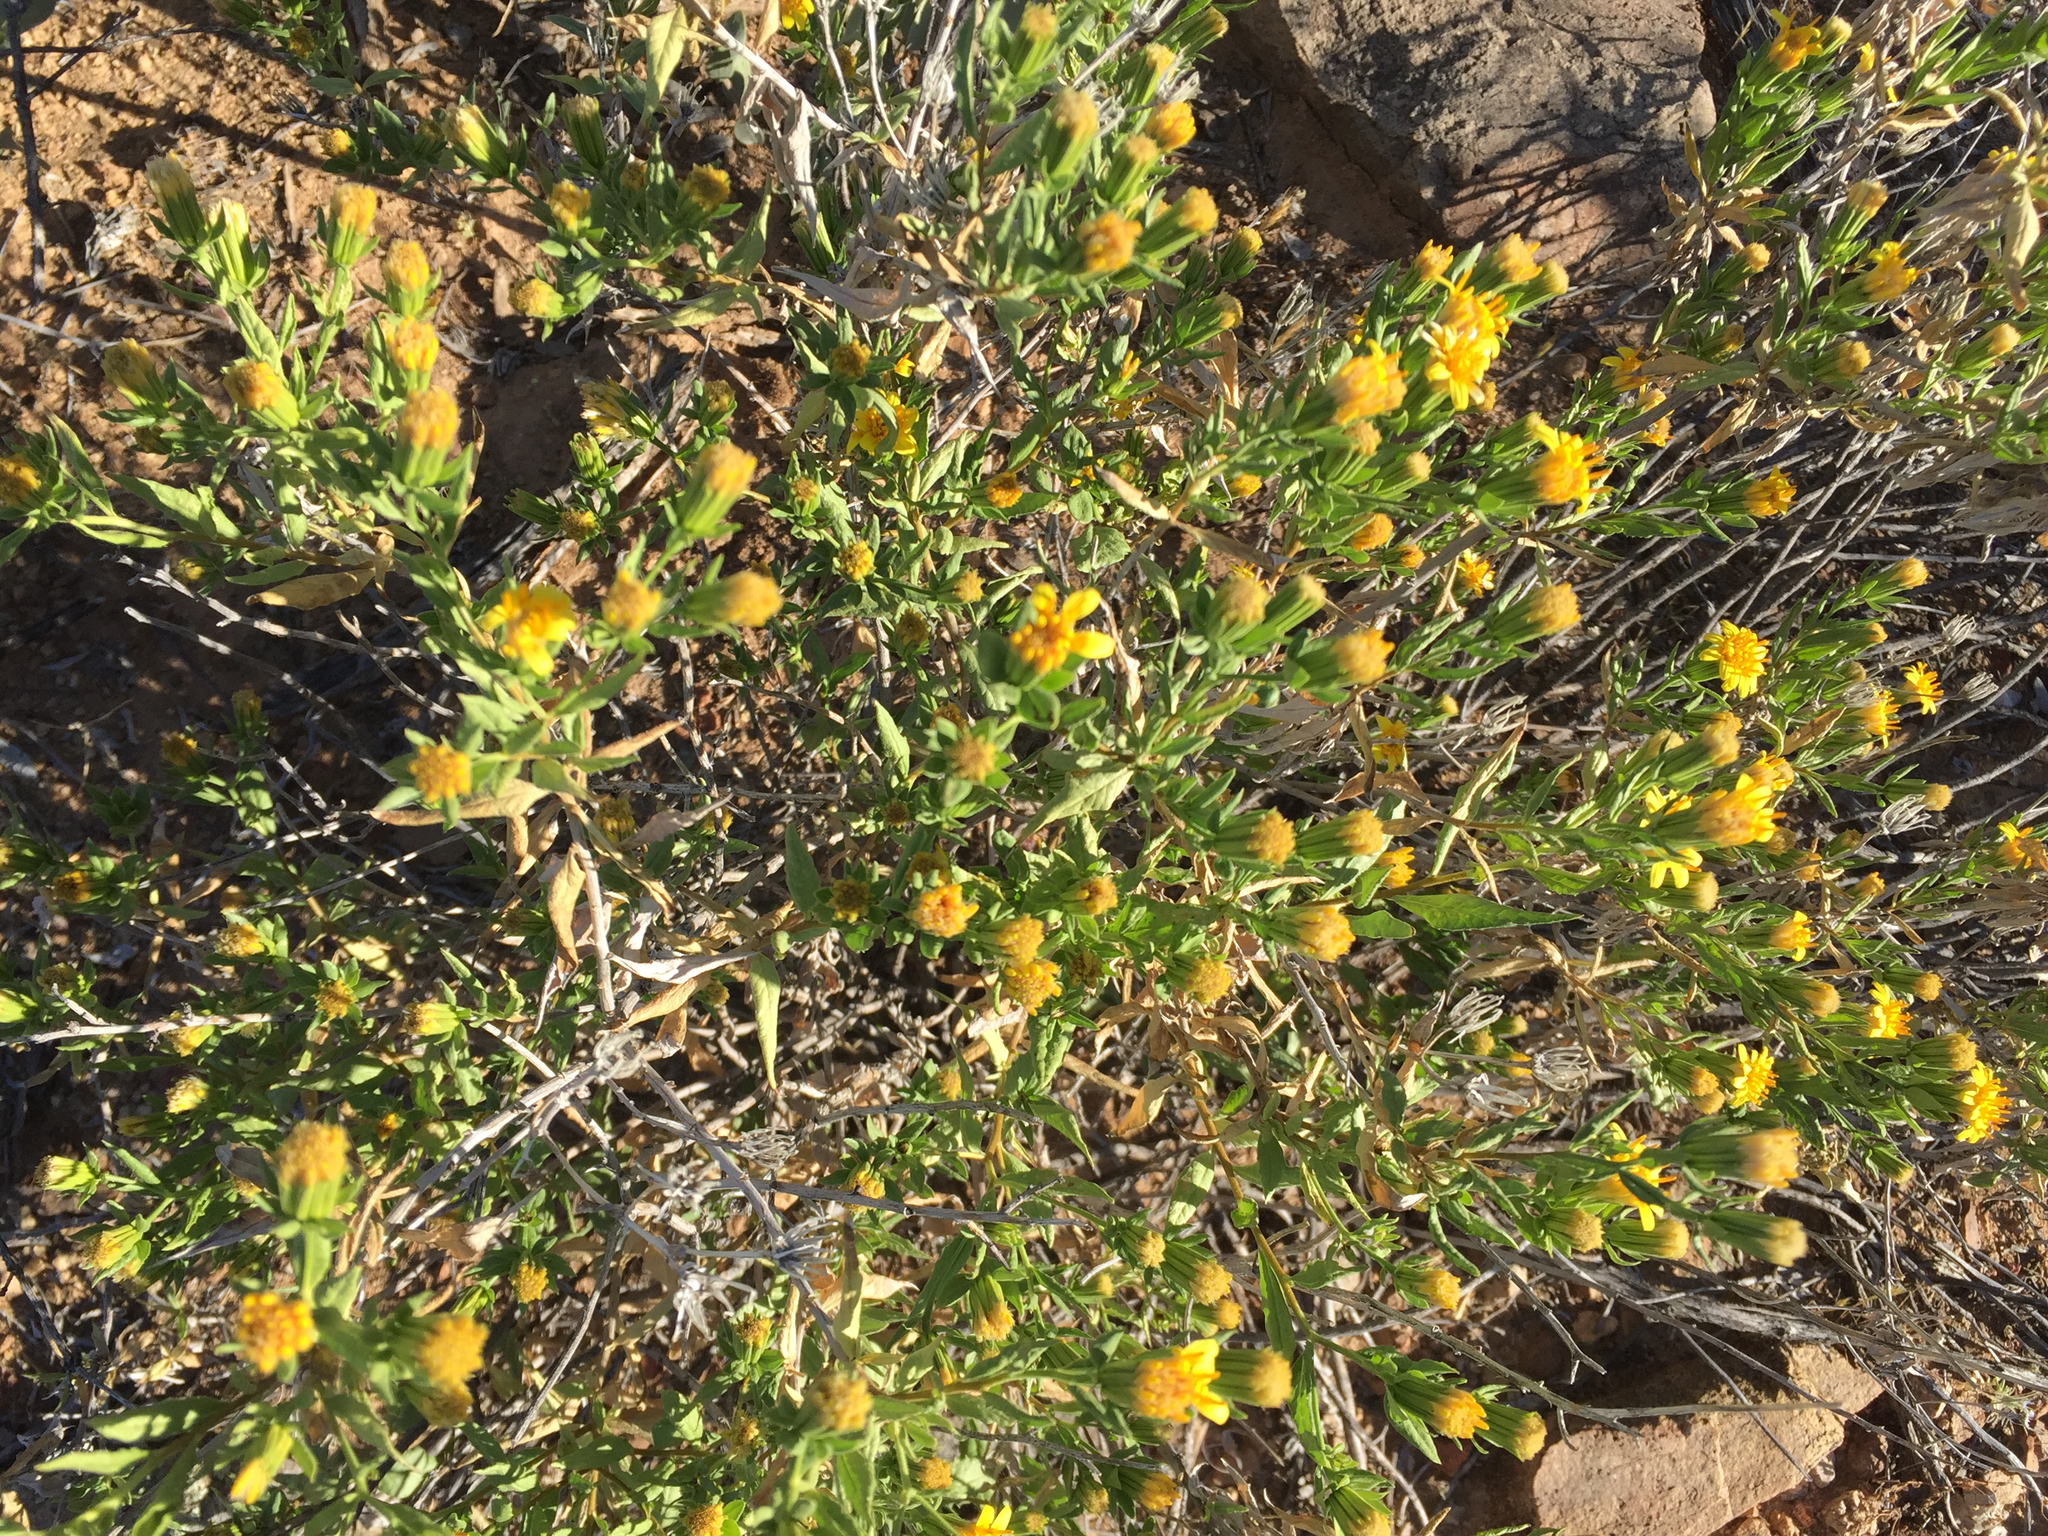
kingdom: Plantae
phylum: Tracheophyta
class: Magnoliopsida
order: Asterales
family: Asteraceae
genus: Trixis
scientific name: Trixis californica
